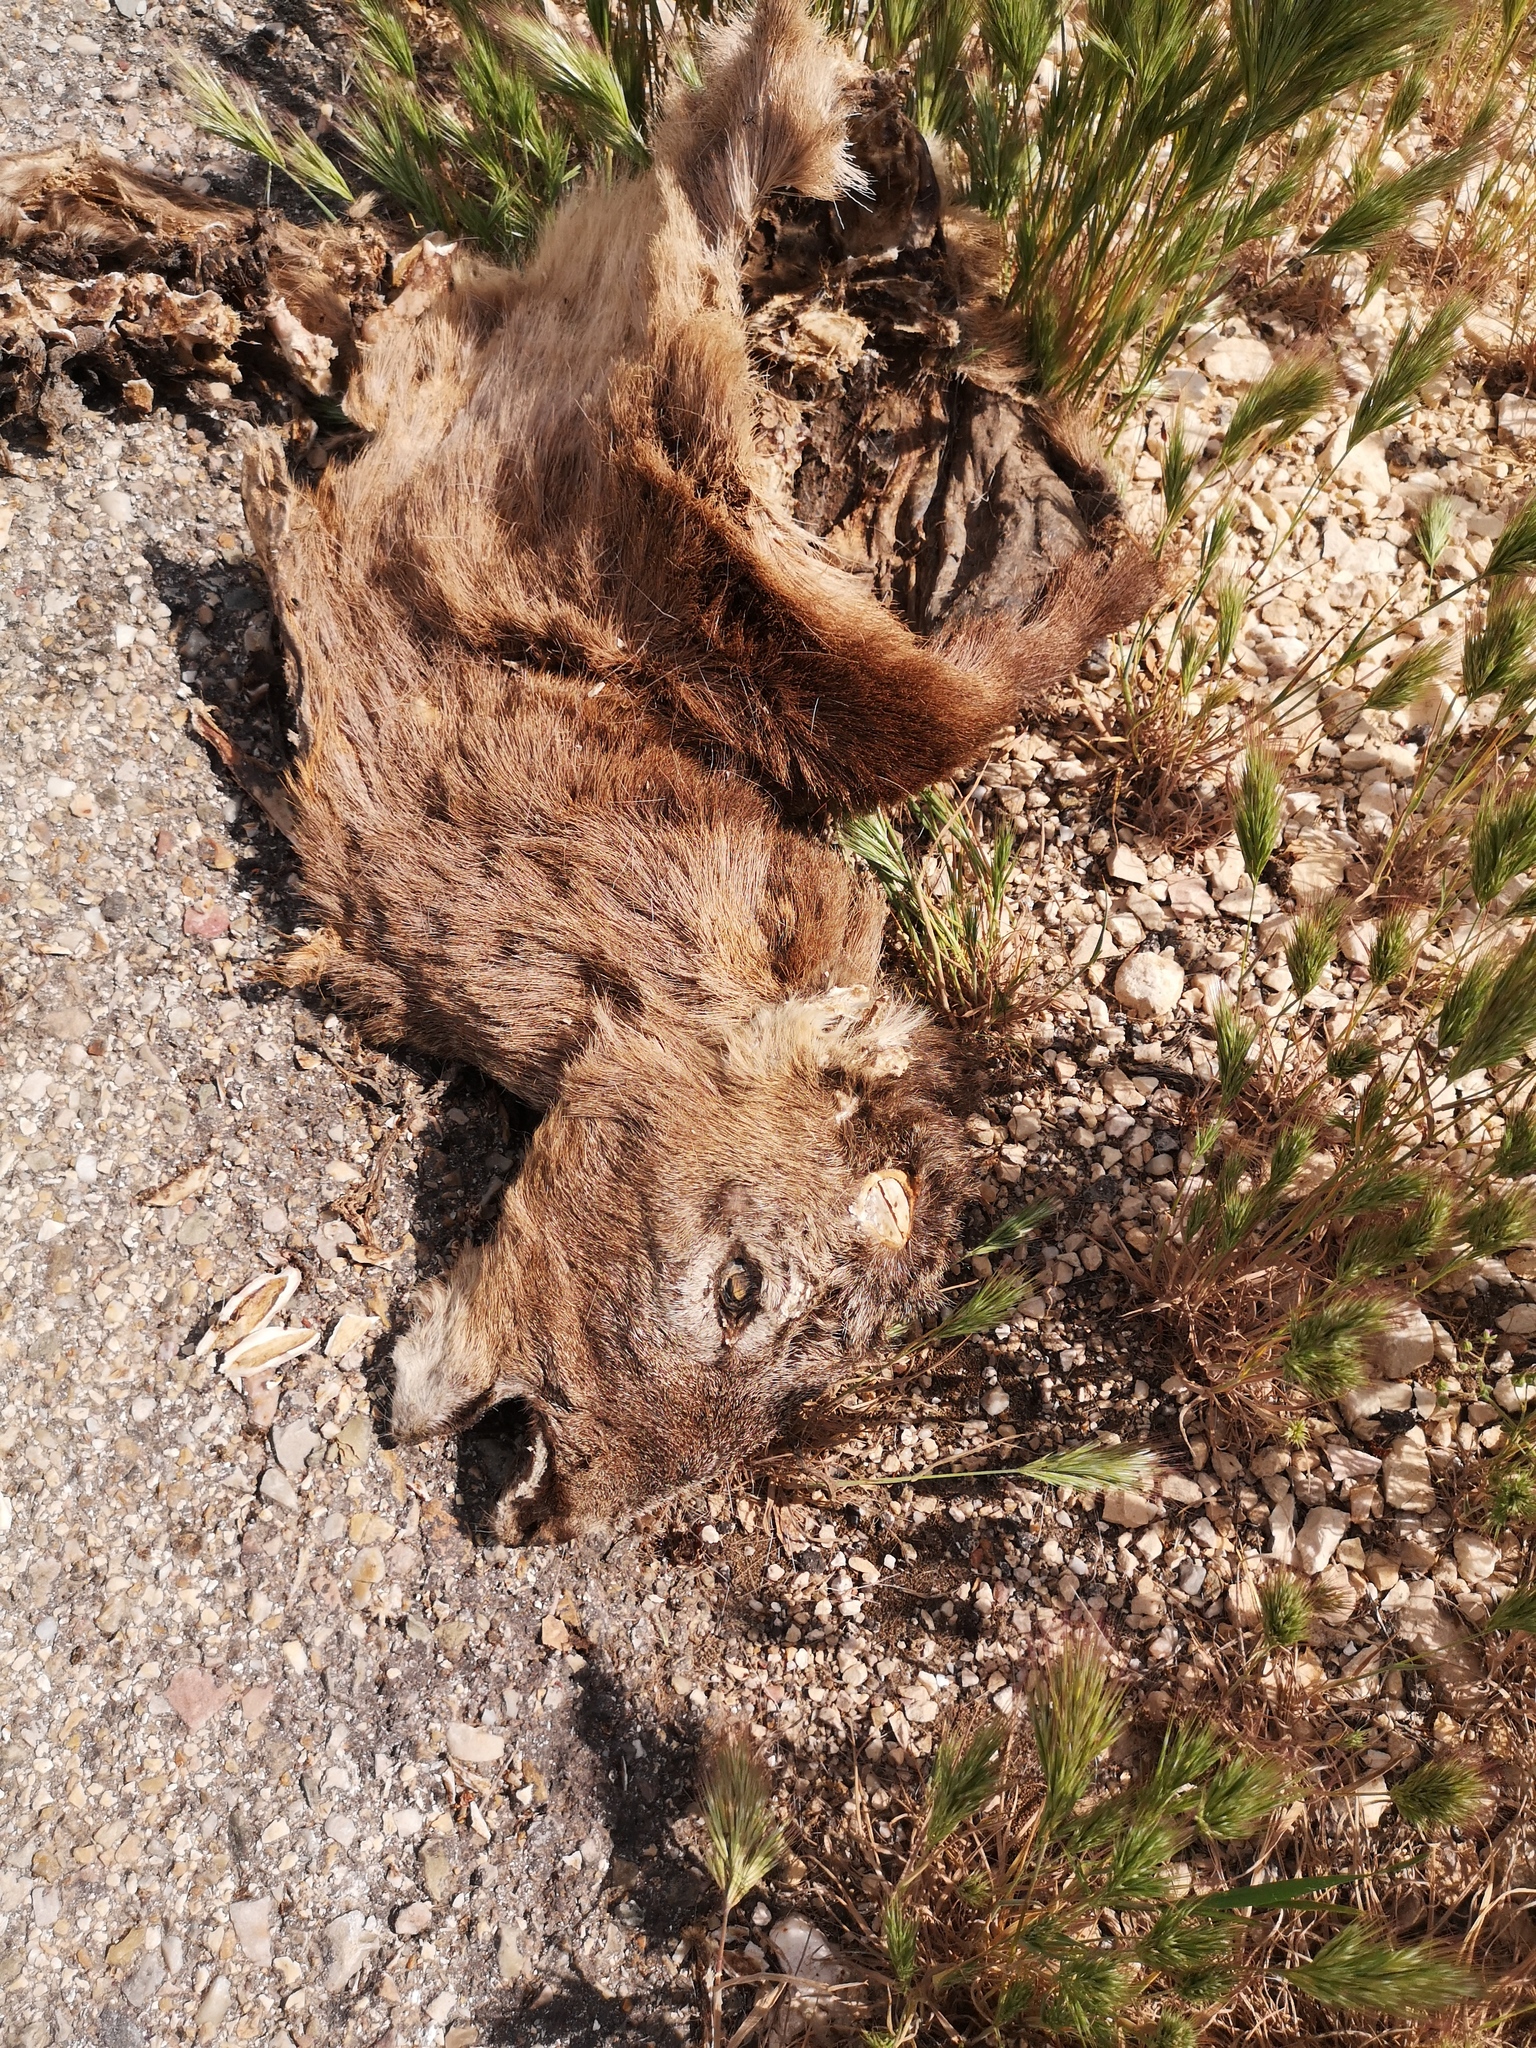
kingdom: Animalia
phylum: Chordata
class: Mammalia
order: Artiodactyla
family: Cervidae
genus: Capreolus
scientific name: Capreolus capreolus
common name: Western roe deer
